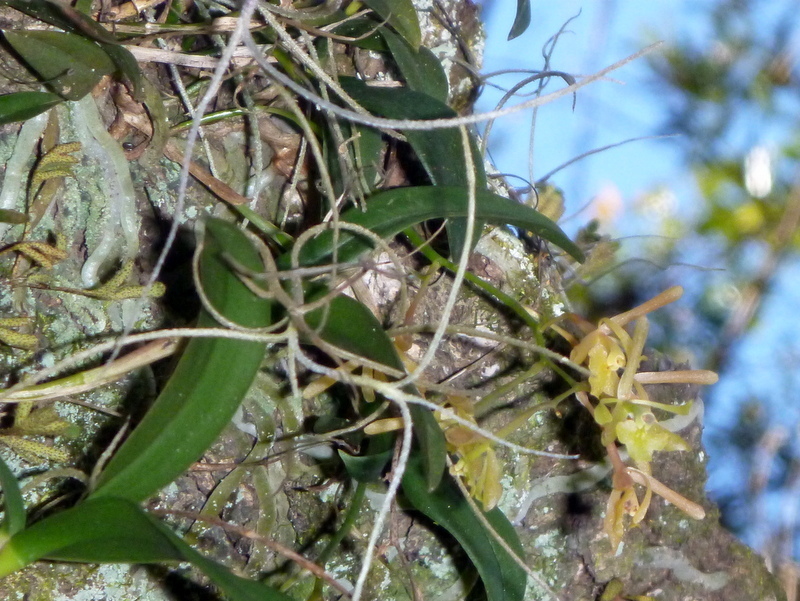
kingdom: Plantae
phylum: Tracheophyta
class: Liliopsida
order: Asparagales
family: Orchidaceae
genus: Epidendrum
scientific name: Epidendrum conopseum
